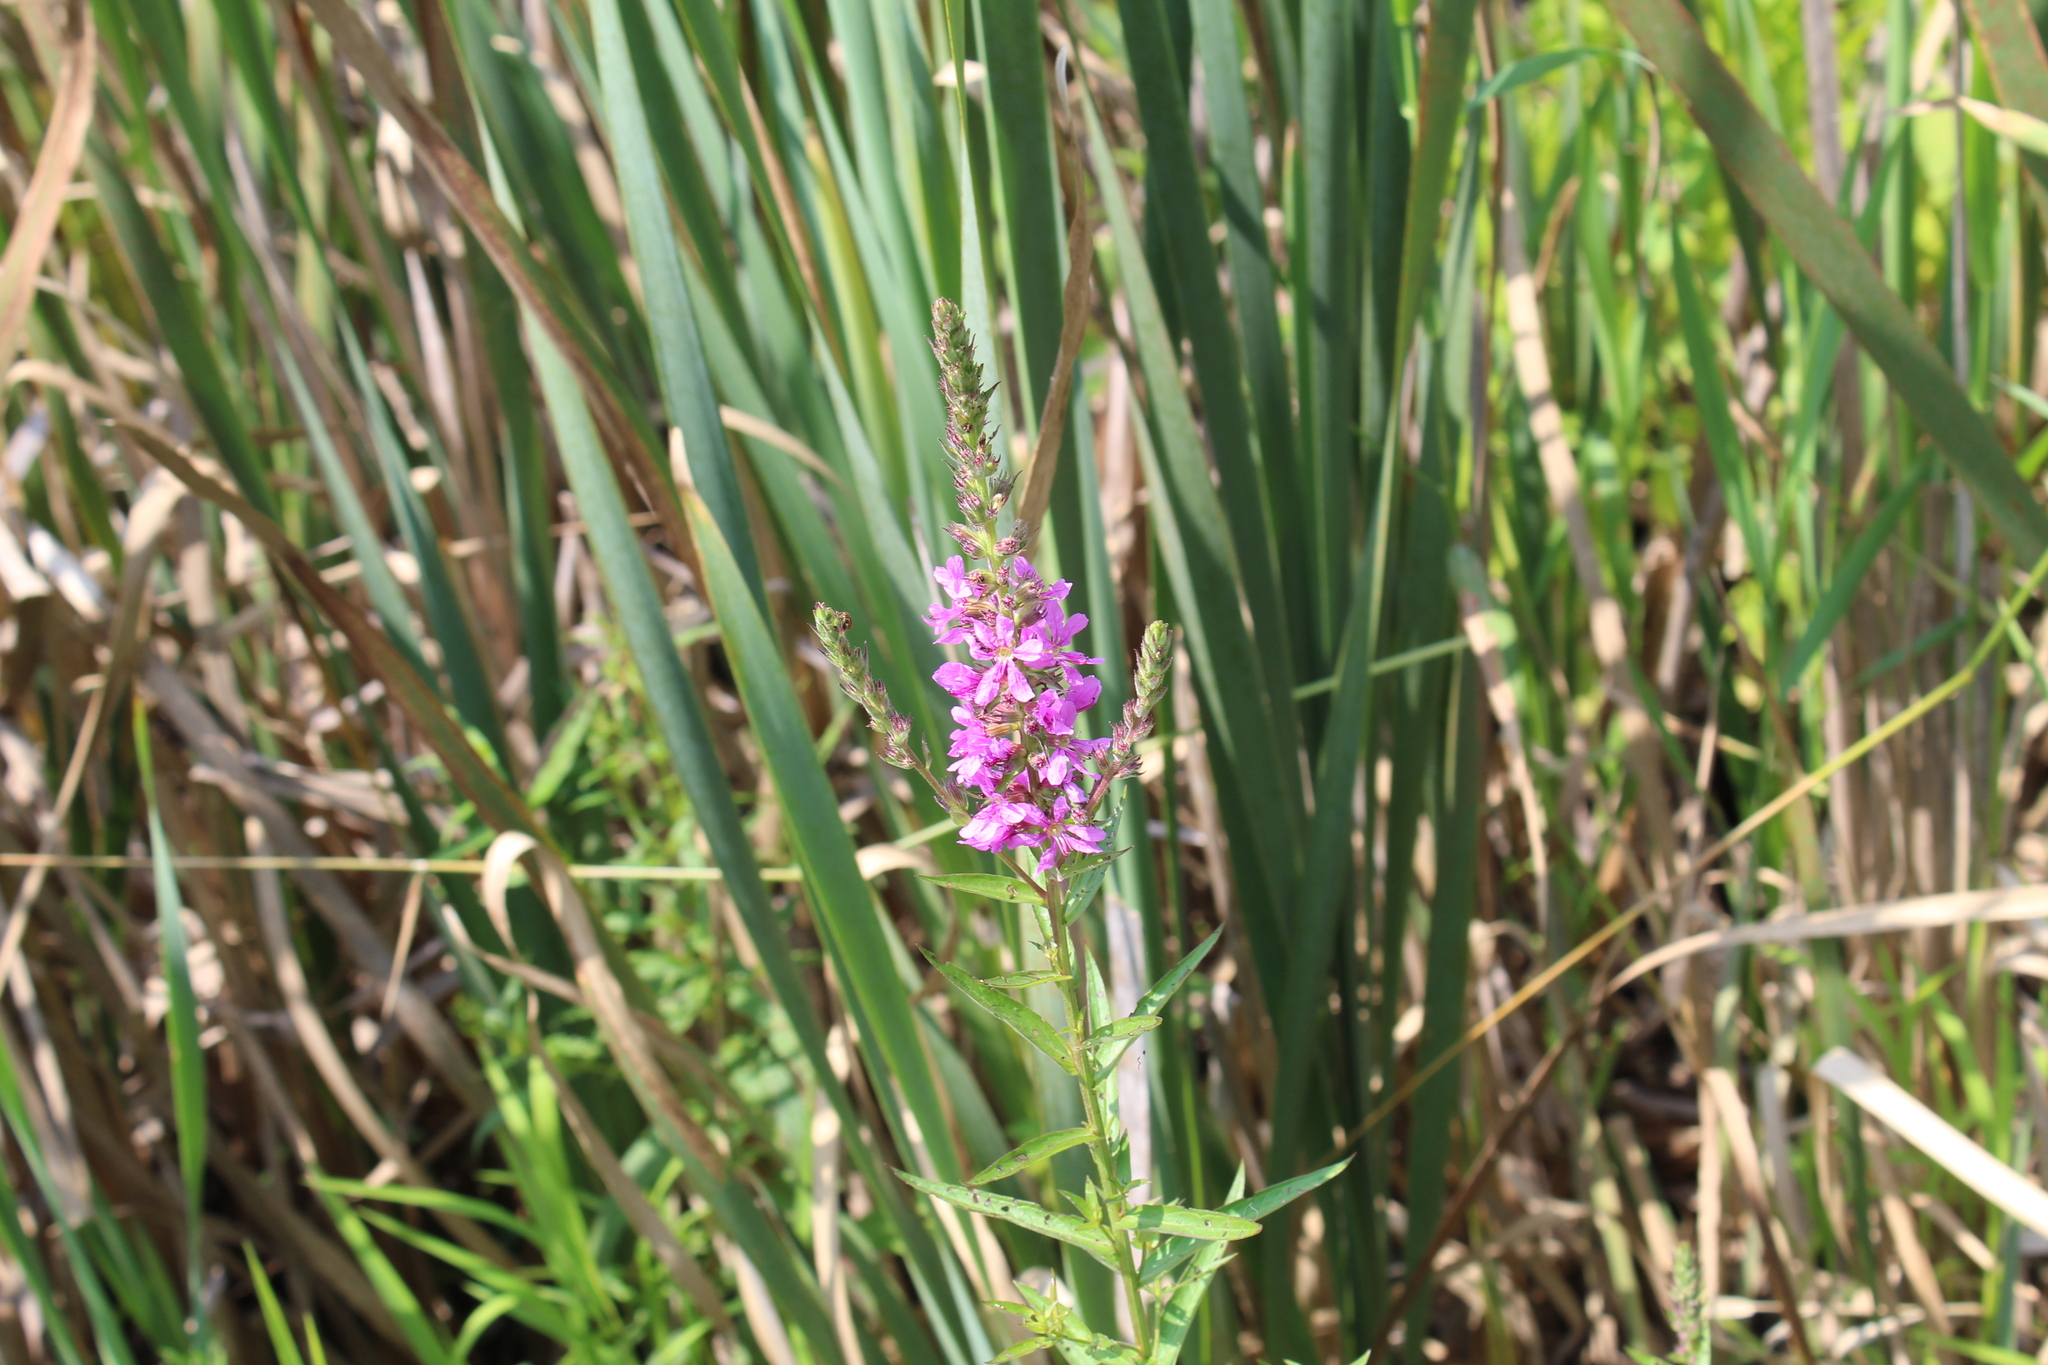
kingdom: Plantae
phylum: Tracheophyta
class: Magnoliopsida
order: Myrtales
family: Lythraceae
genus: Lythrum
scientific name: Lythrum salicaria
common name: Purple loosestrife
